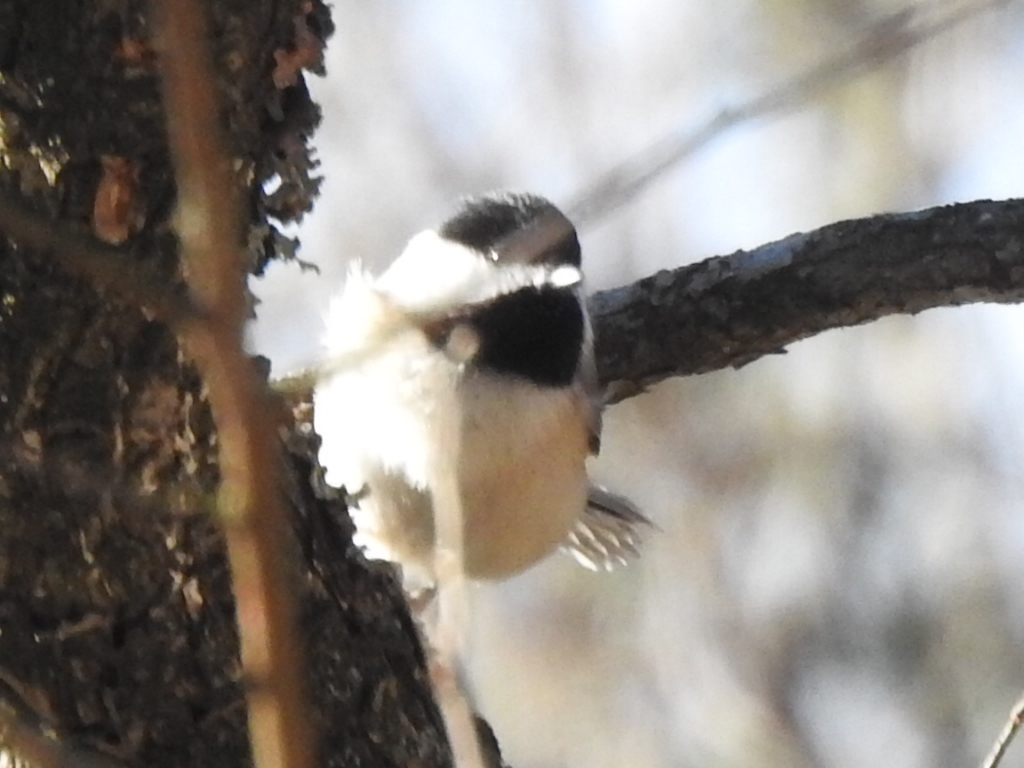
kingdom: Animalia
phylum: Chordata
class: Aves
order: Passeriformes
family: Paridae
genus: Poecile
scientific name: Poecile carolinensis
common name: Carolina chickadee
